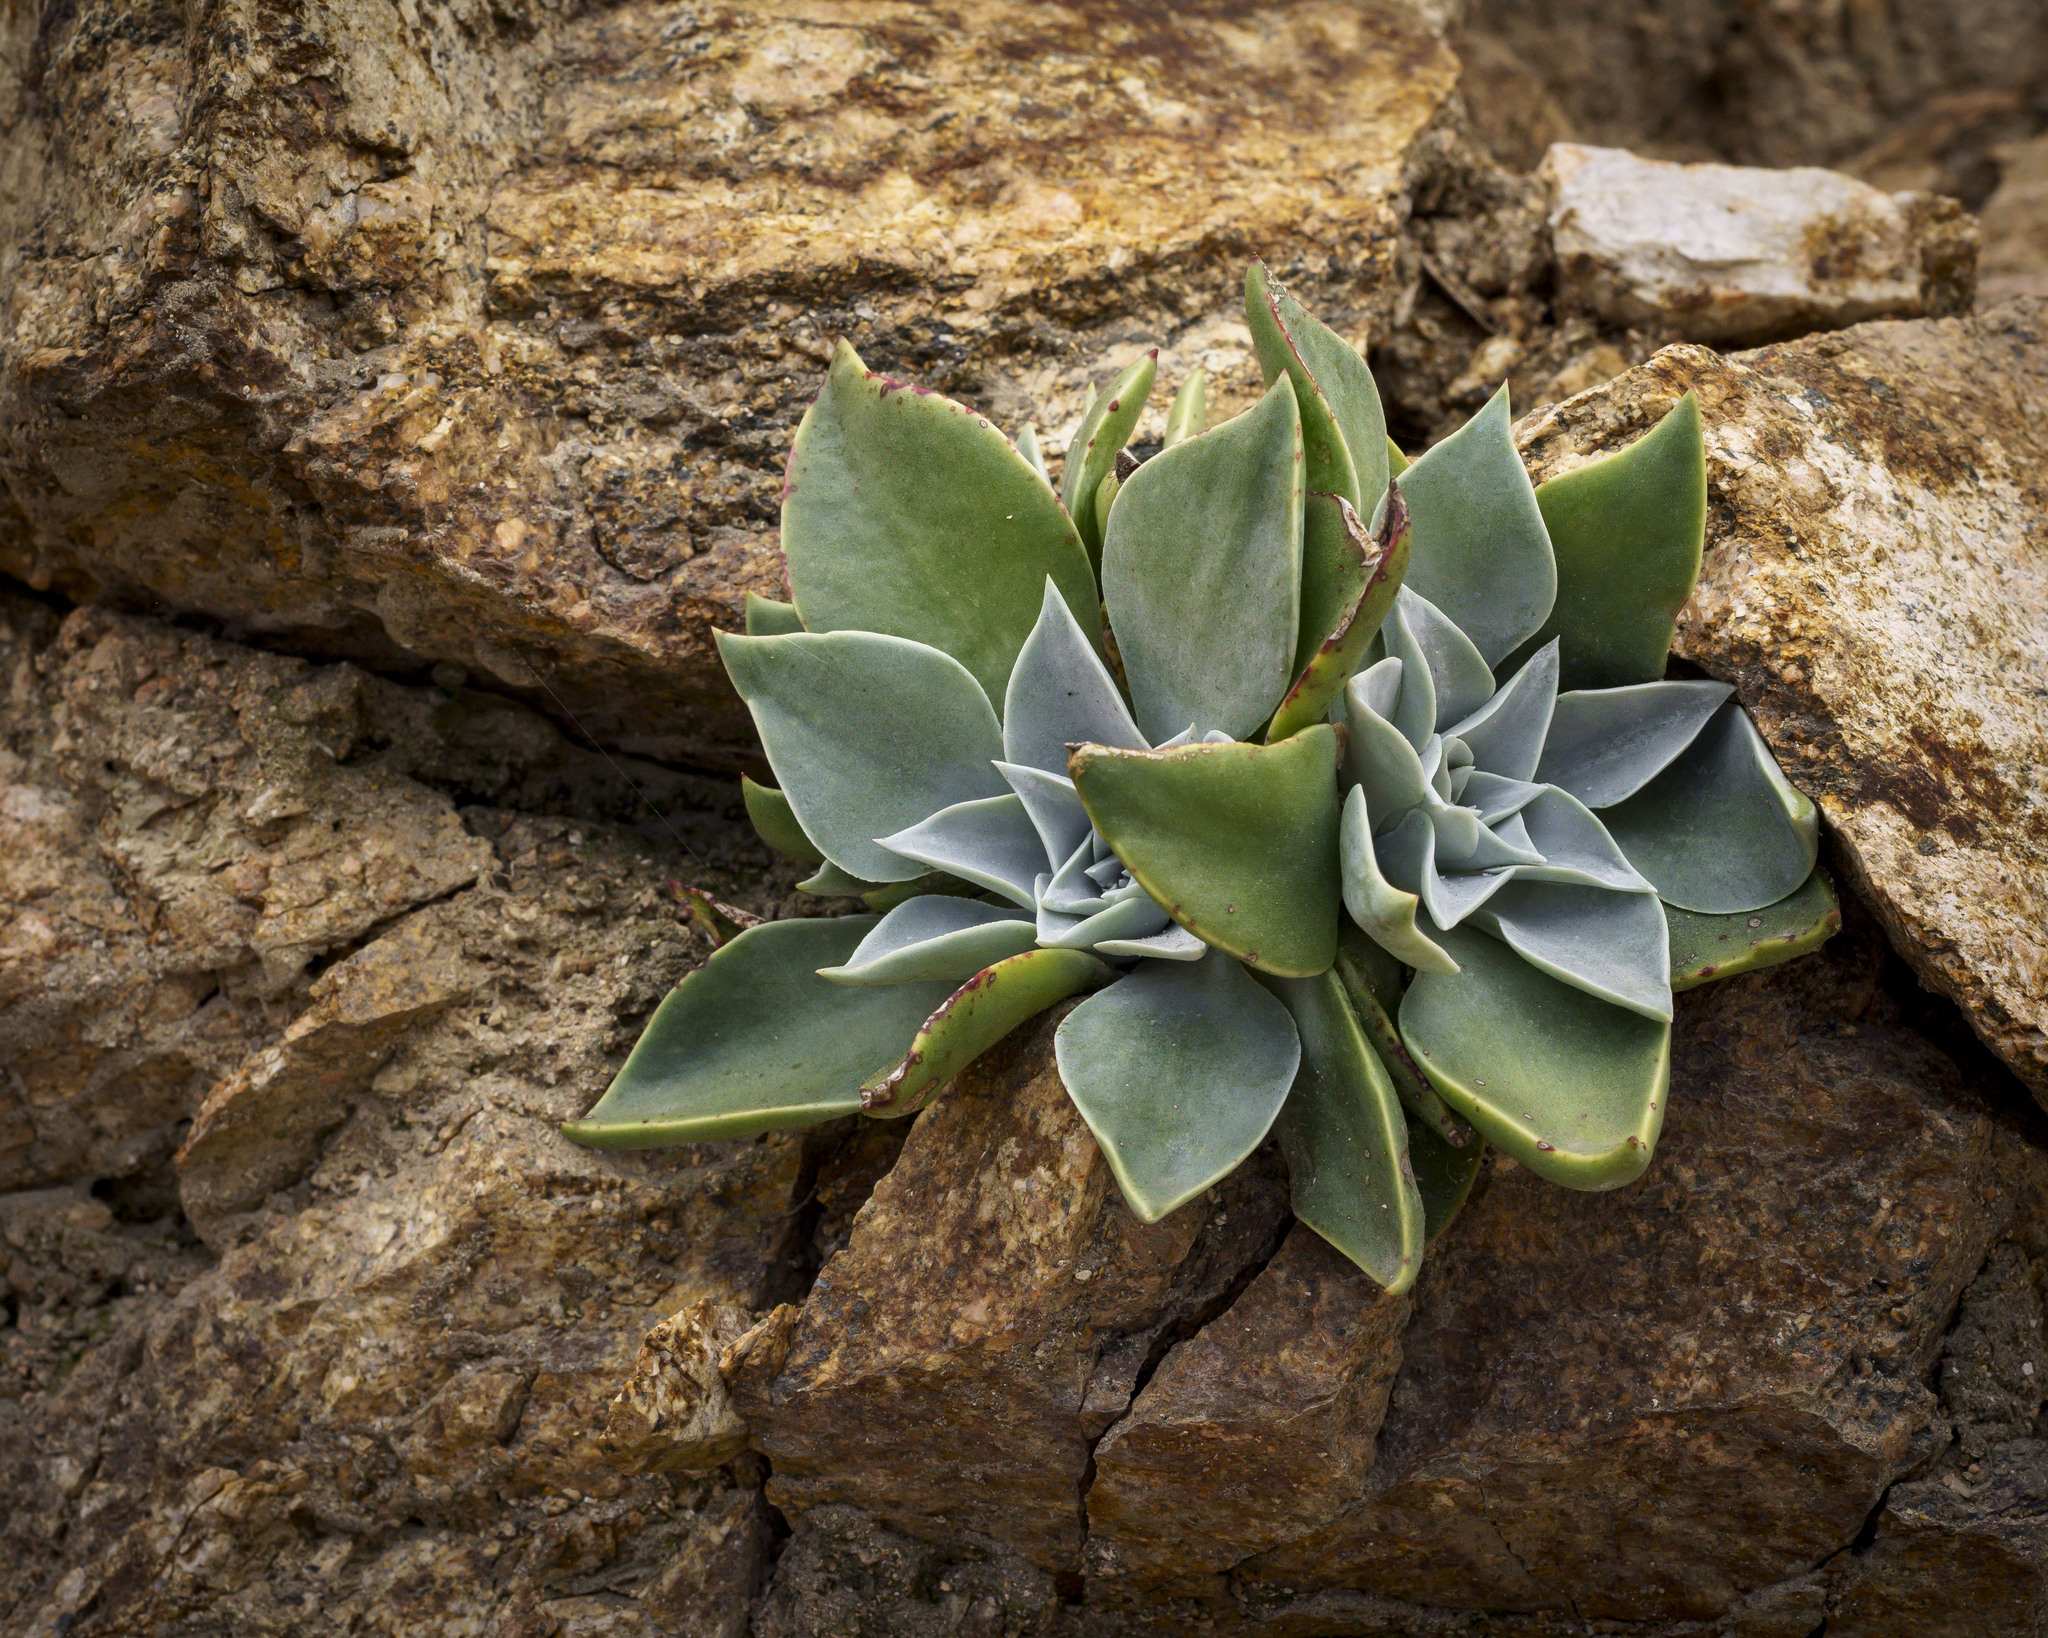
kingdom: Plantae
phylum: Tracheophyta
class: Magnoliopsida
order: Saxifragales
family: Crassulaceae
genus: Dudleya
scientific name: Dudleya cymosa
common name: Canyon dudleya
